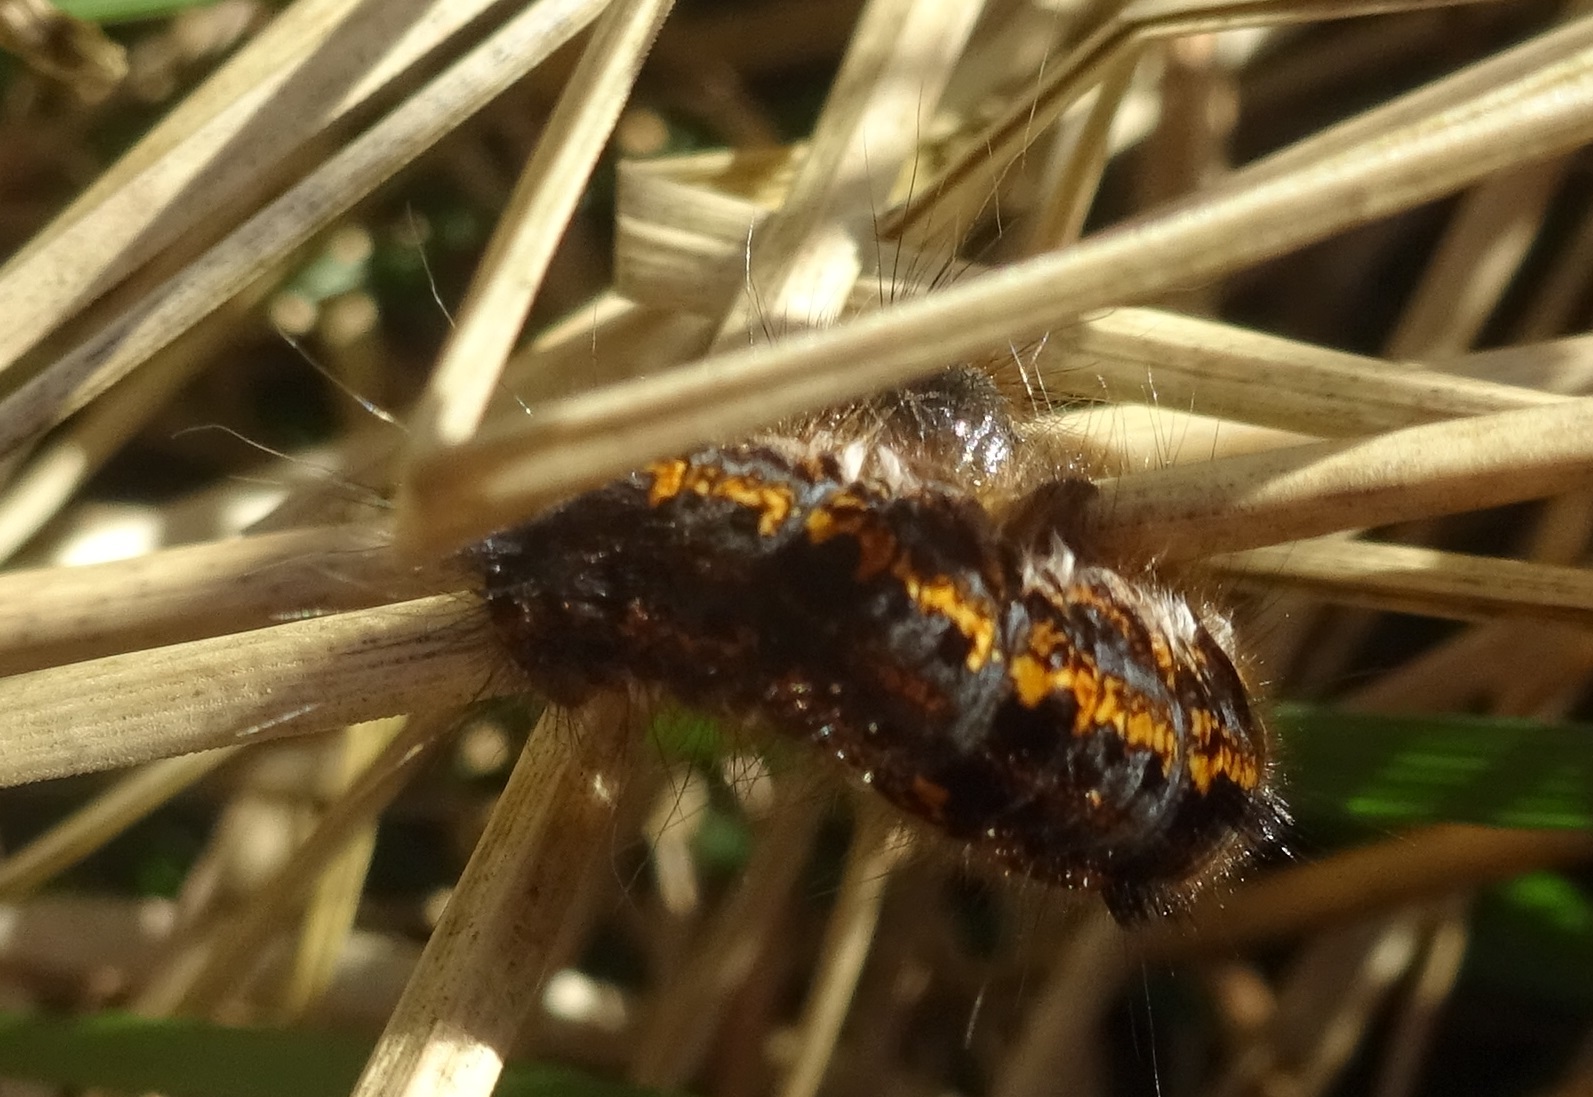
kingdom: Animalia
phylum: Arthropoda
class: Insecta
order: Lepidoptera
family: Lasiocampidae
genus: Euthrix
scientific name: Euthrix potatoria
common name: Drinker
